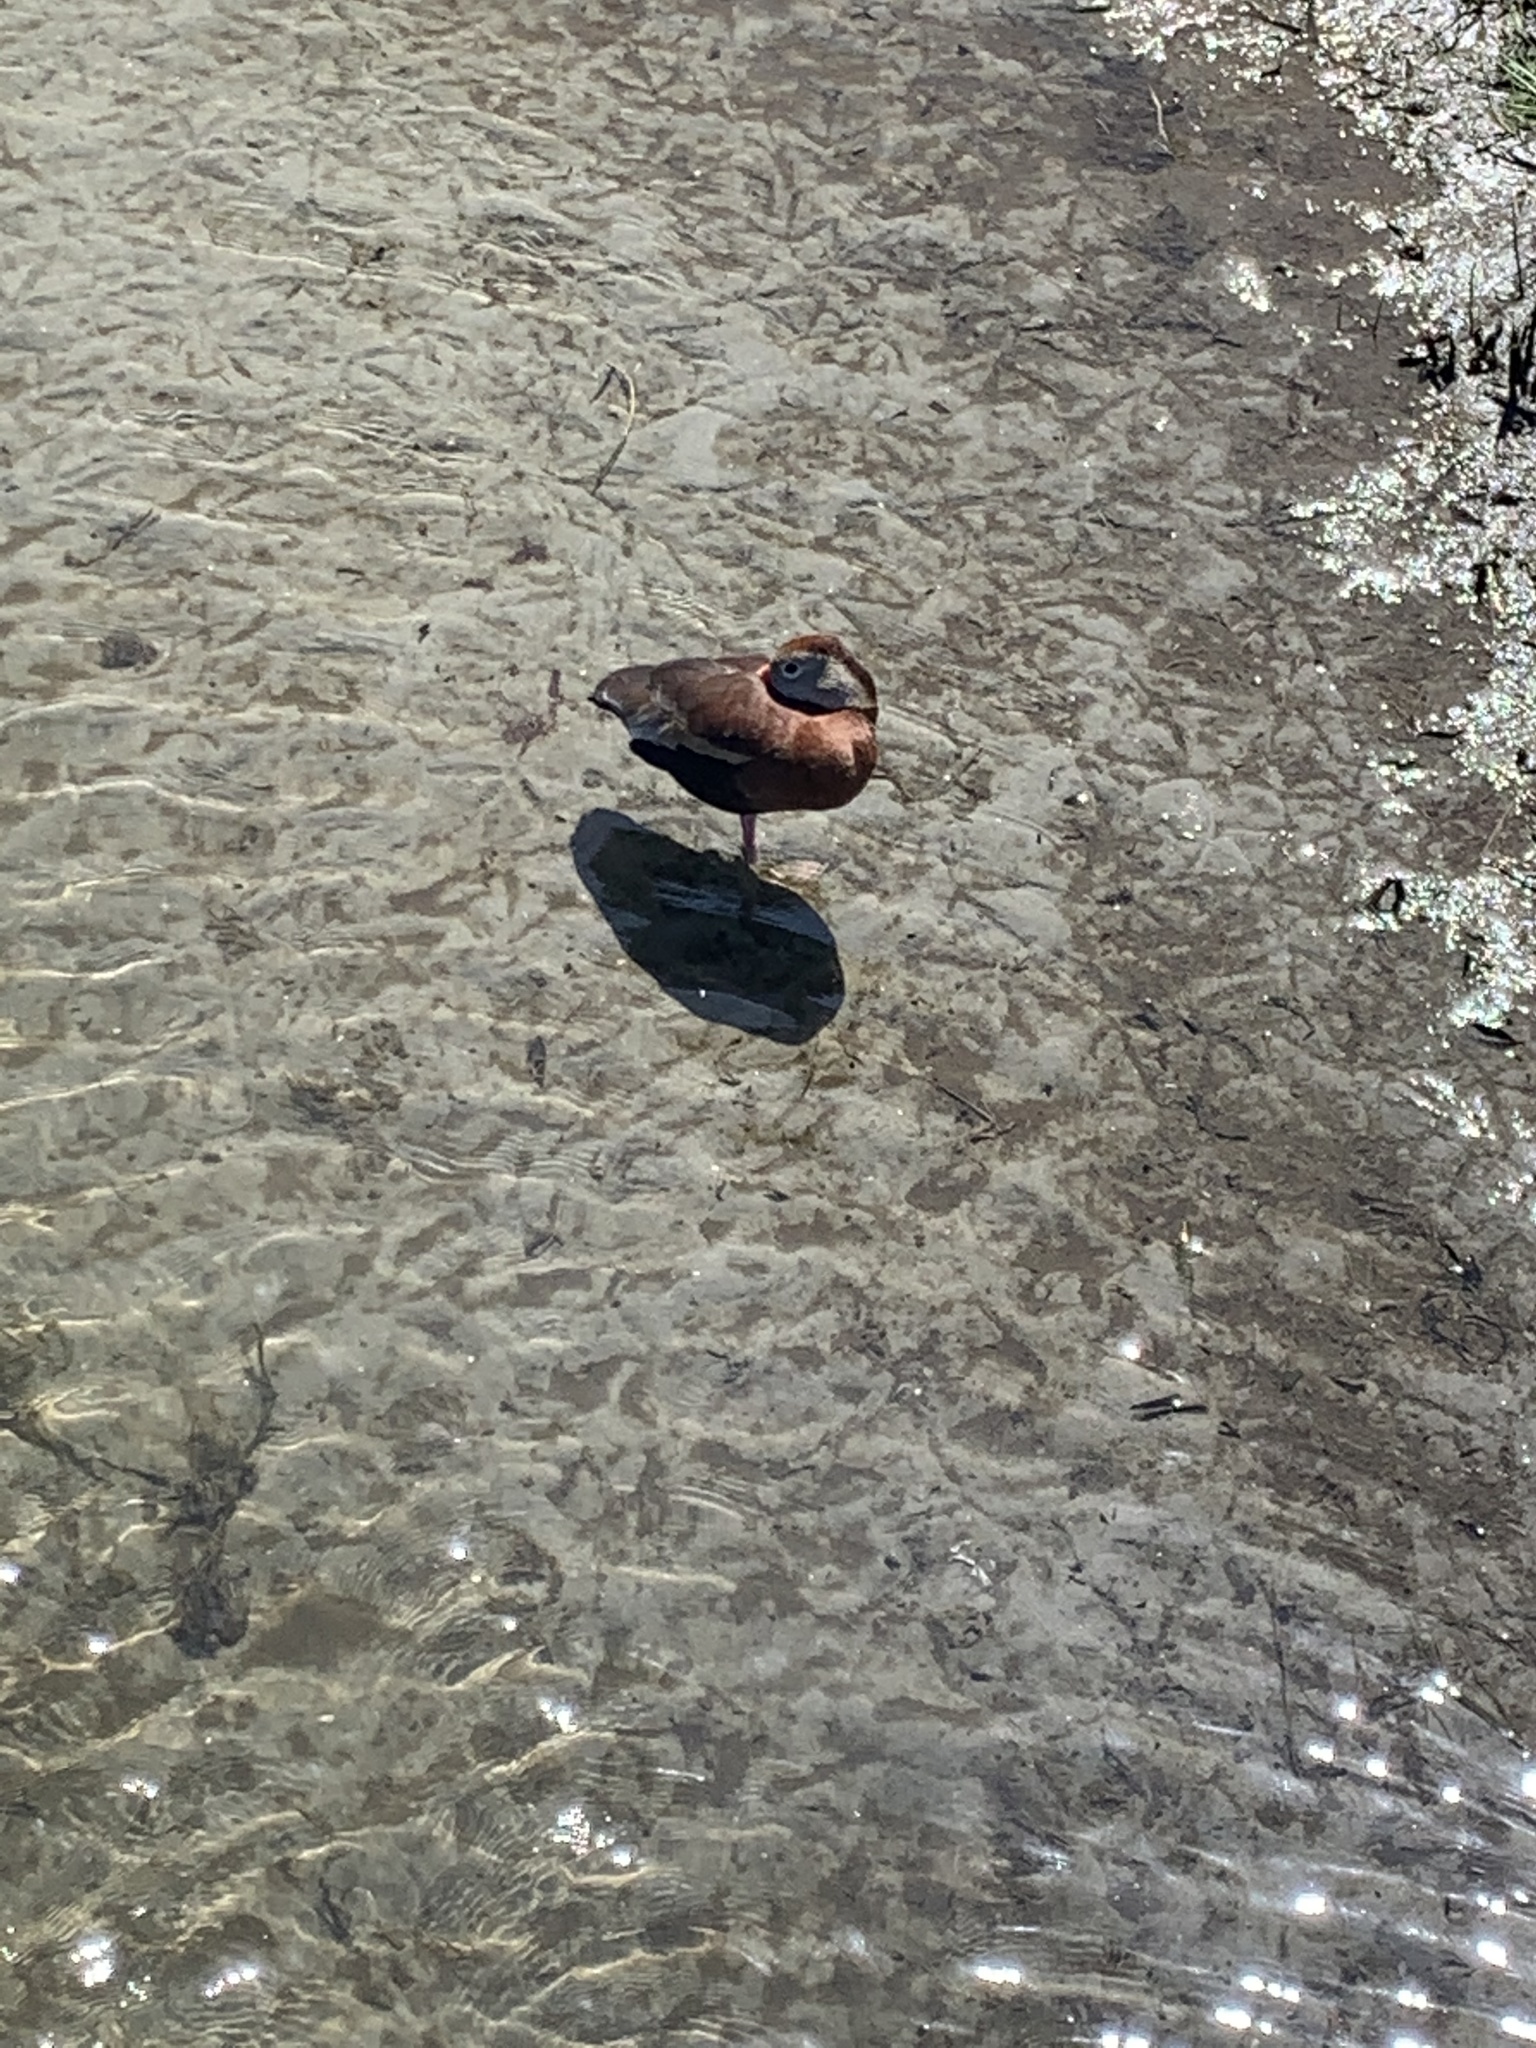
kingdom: Animalia
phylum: Chordata
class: Aves
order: Anseriformes
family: Anatidae
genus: Dendrocygna
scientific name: Dendrocygna autumnalis
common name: Black-bellied whistling duck
